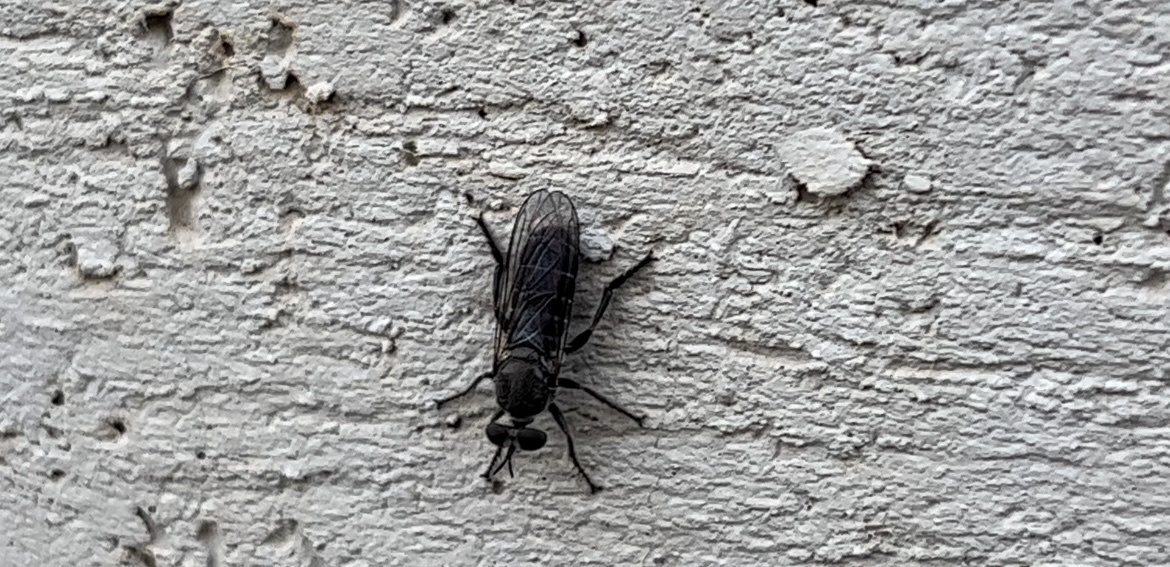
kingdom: Animalia
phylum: Arthropoda
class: Insecta
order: Diptera
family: Asilidae
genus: Atomosia
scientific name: Atomosia puella
